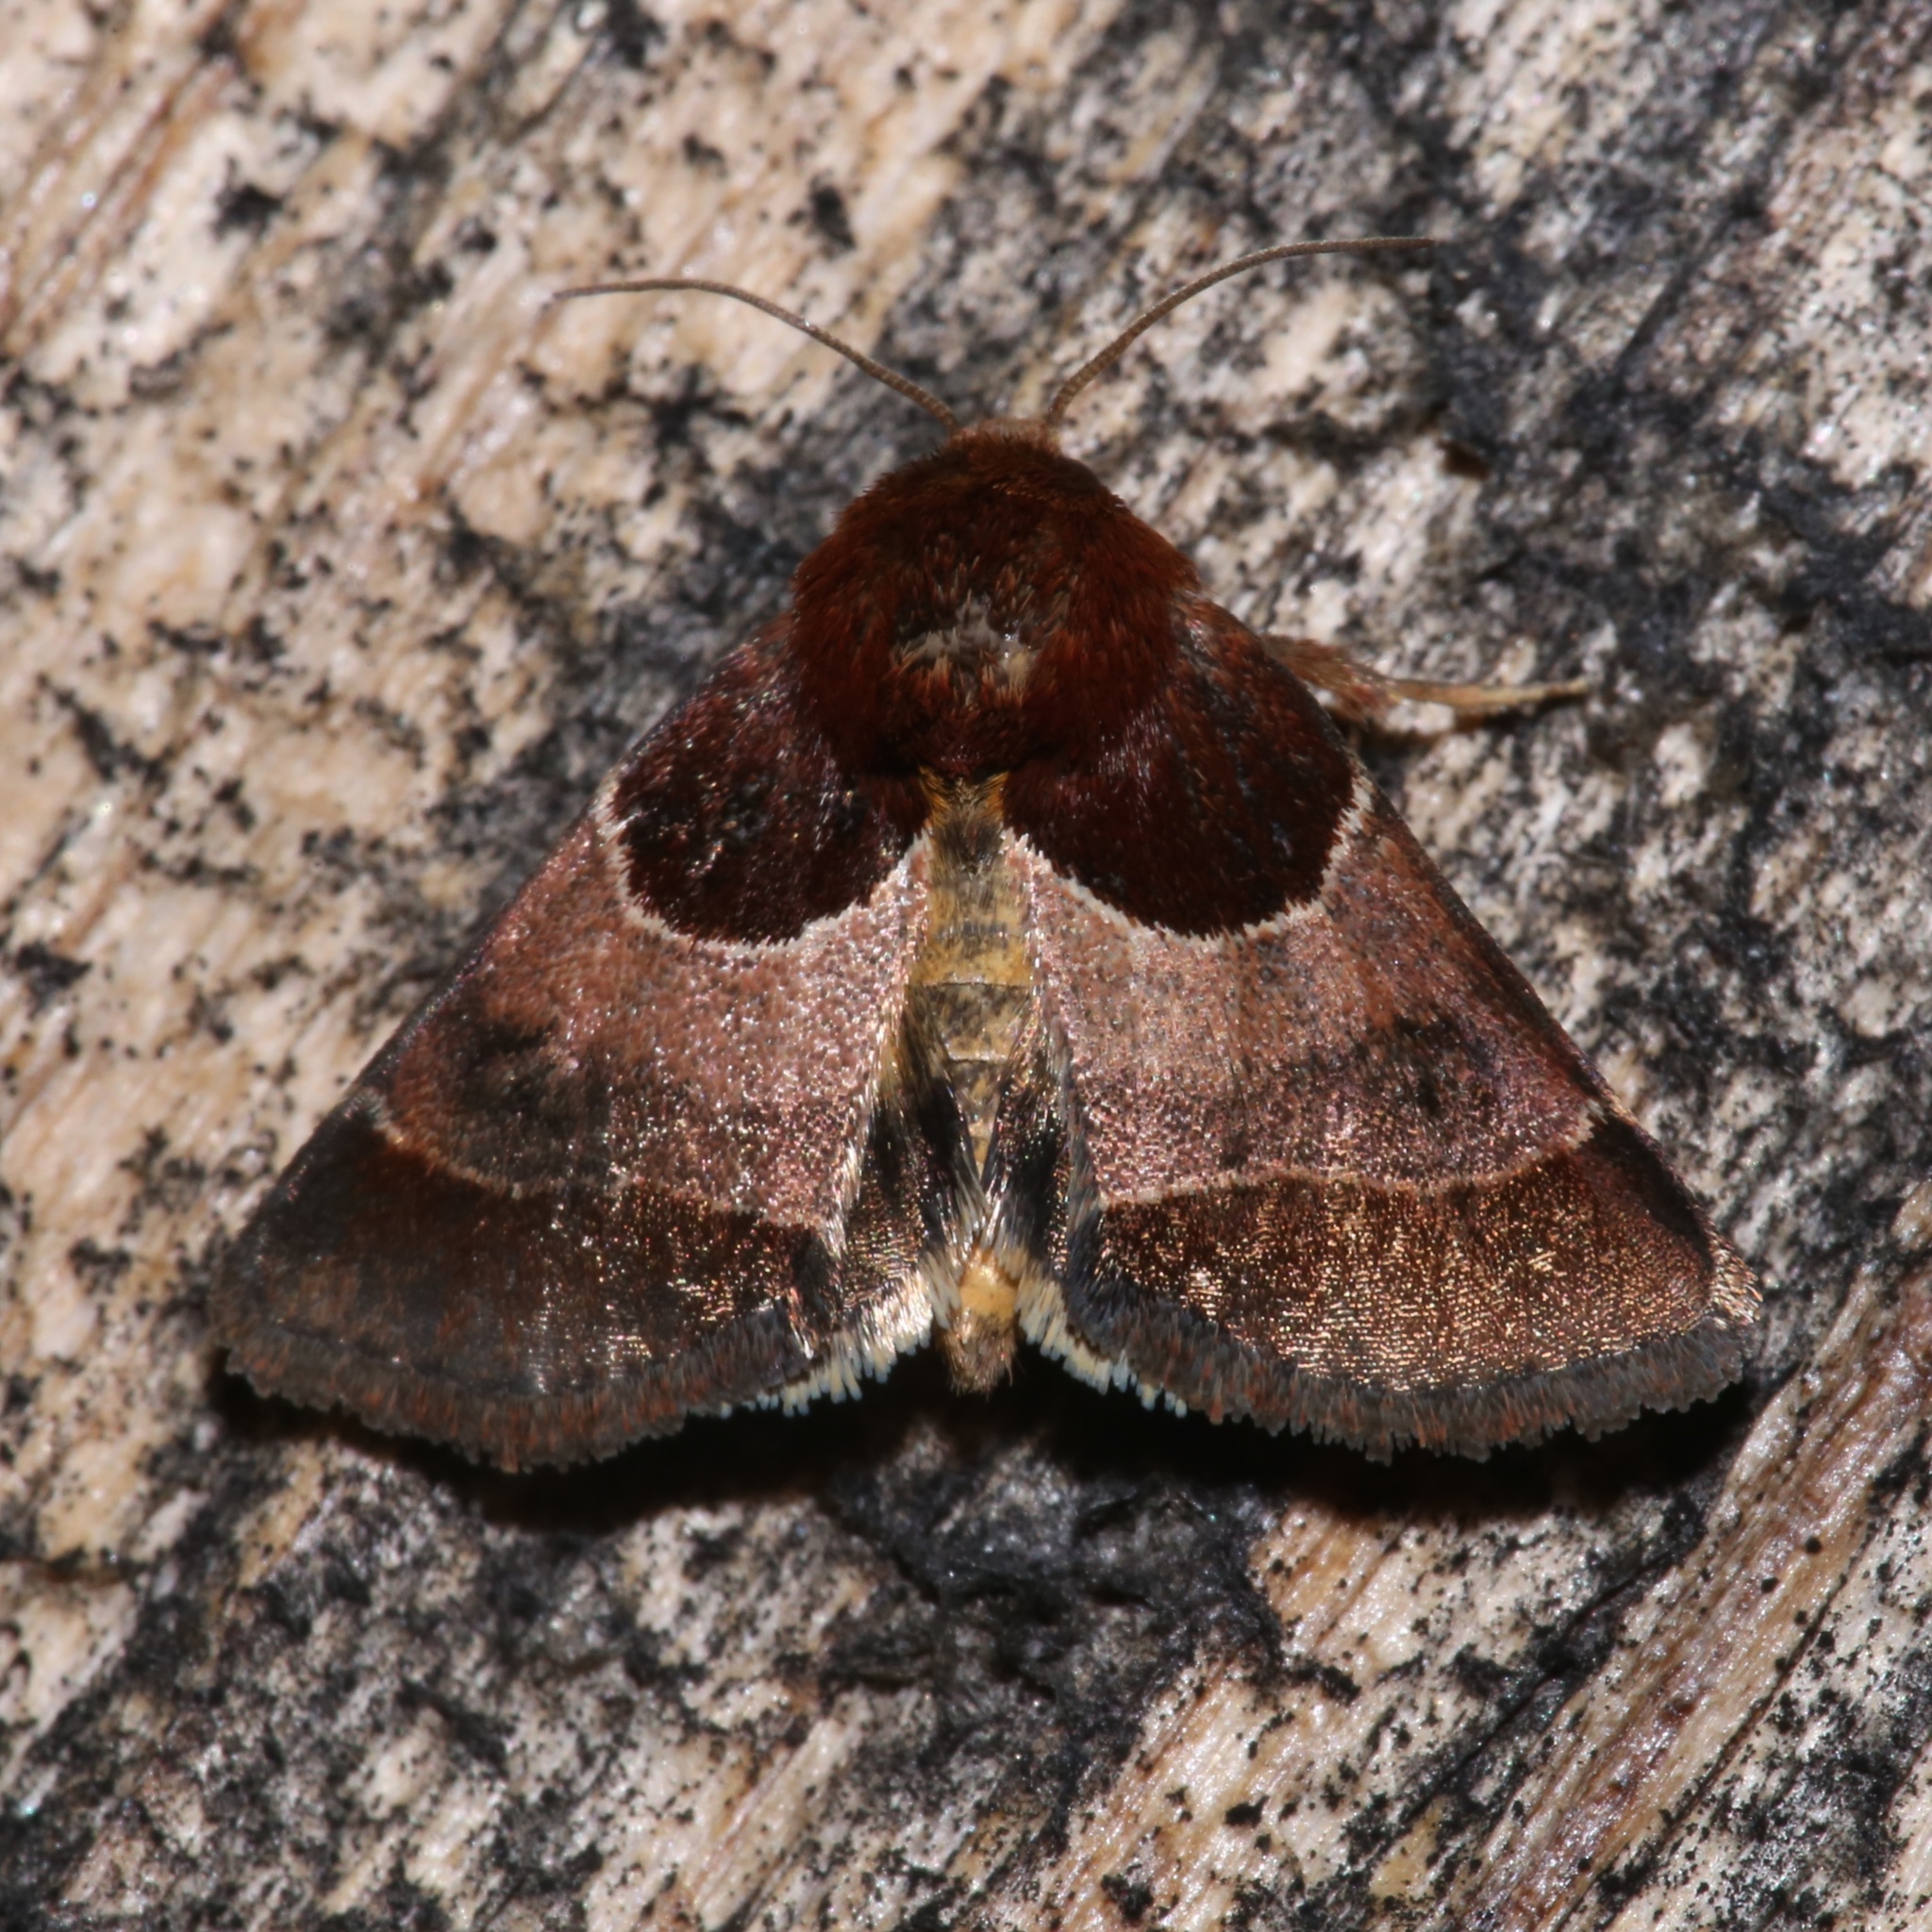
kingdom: Animalia
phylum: Arthropoda
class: Insecta
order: Lepidoptera
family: Noctuidae
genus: Schinia
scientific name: Schinia arcigera
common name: Arcigera flower moth
